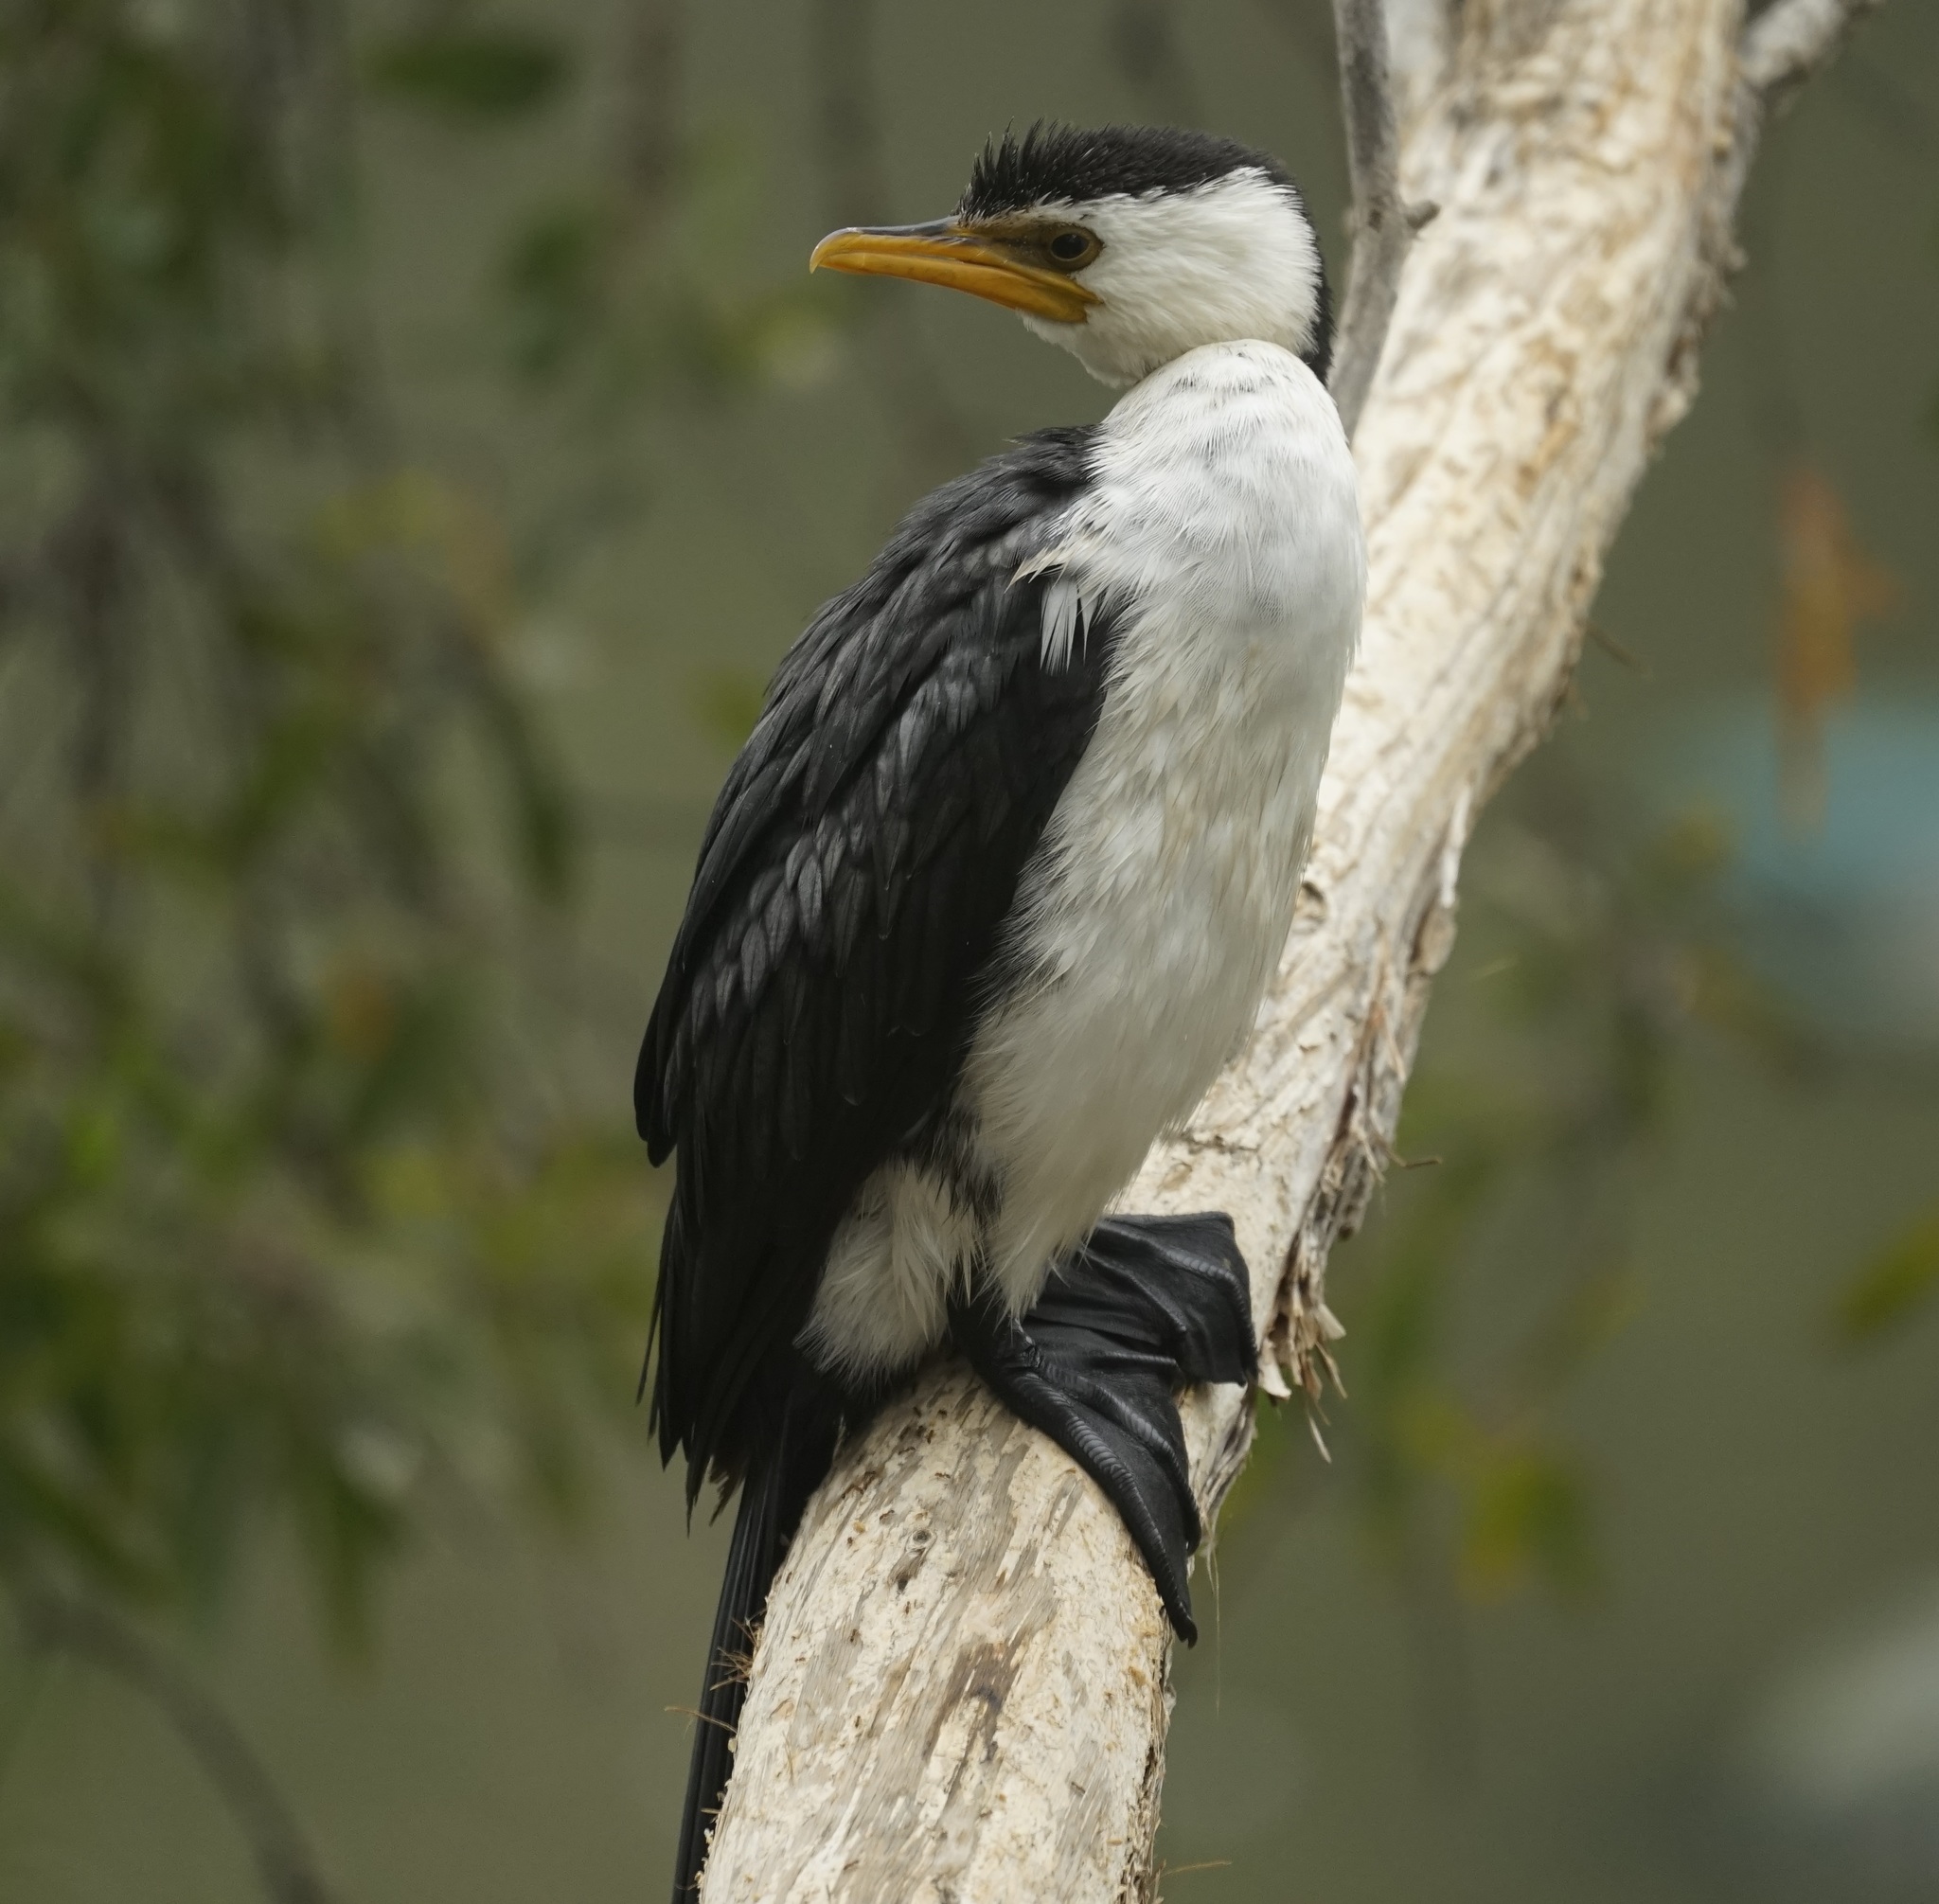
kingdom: Animalia
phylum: Chordata
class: Aves
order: Suliformes
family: Phalacrocoracidae
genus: Microcarbo
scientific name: Microcarbo melanoleucos
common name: Little pied cormorant
